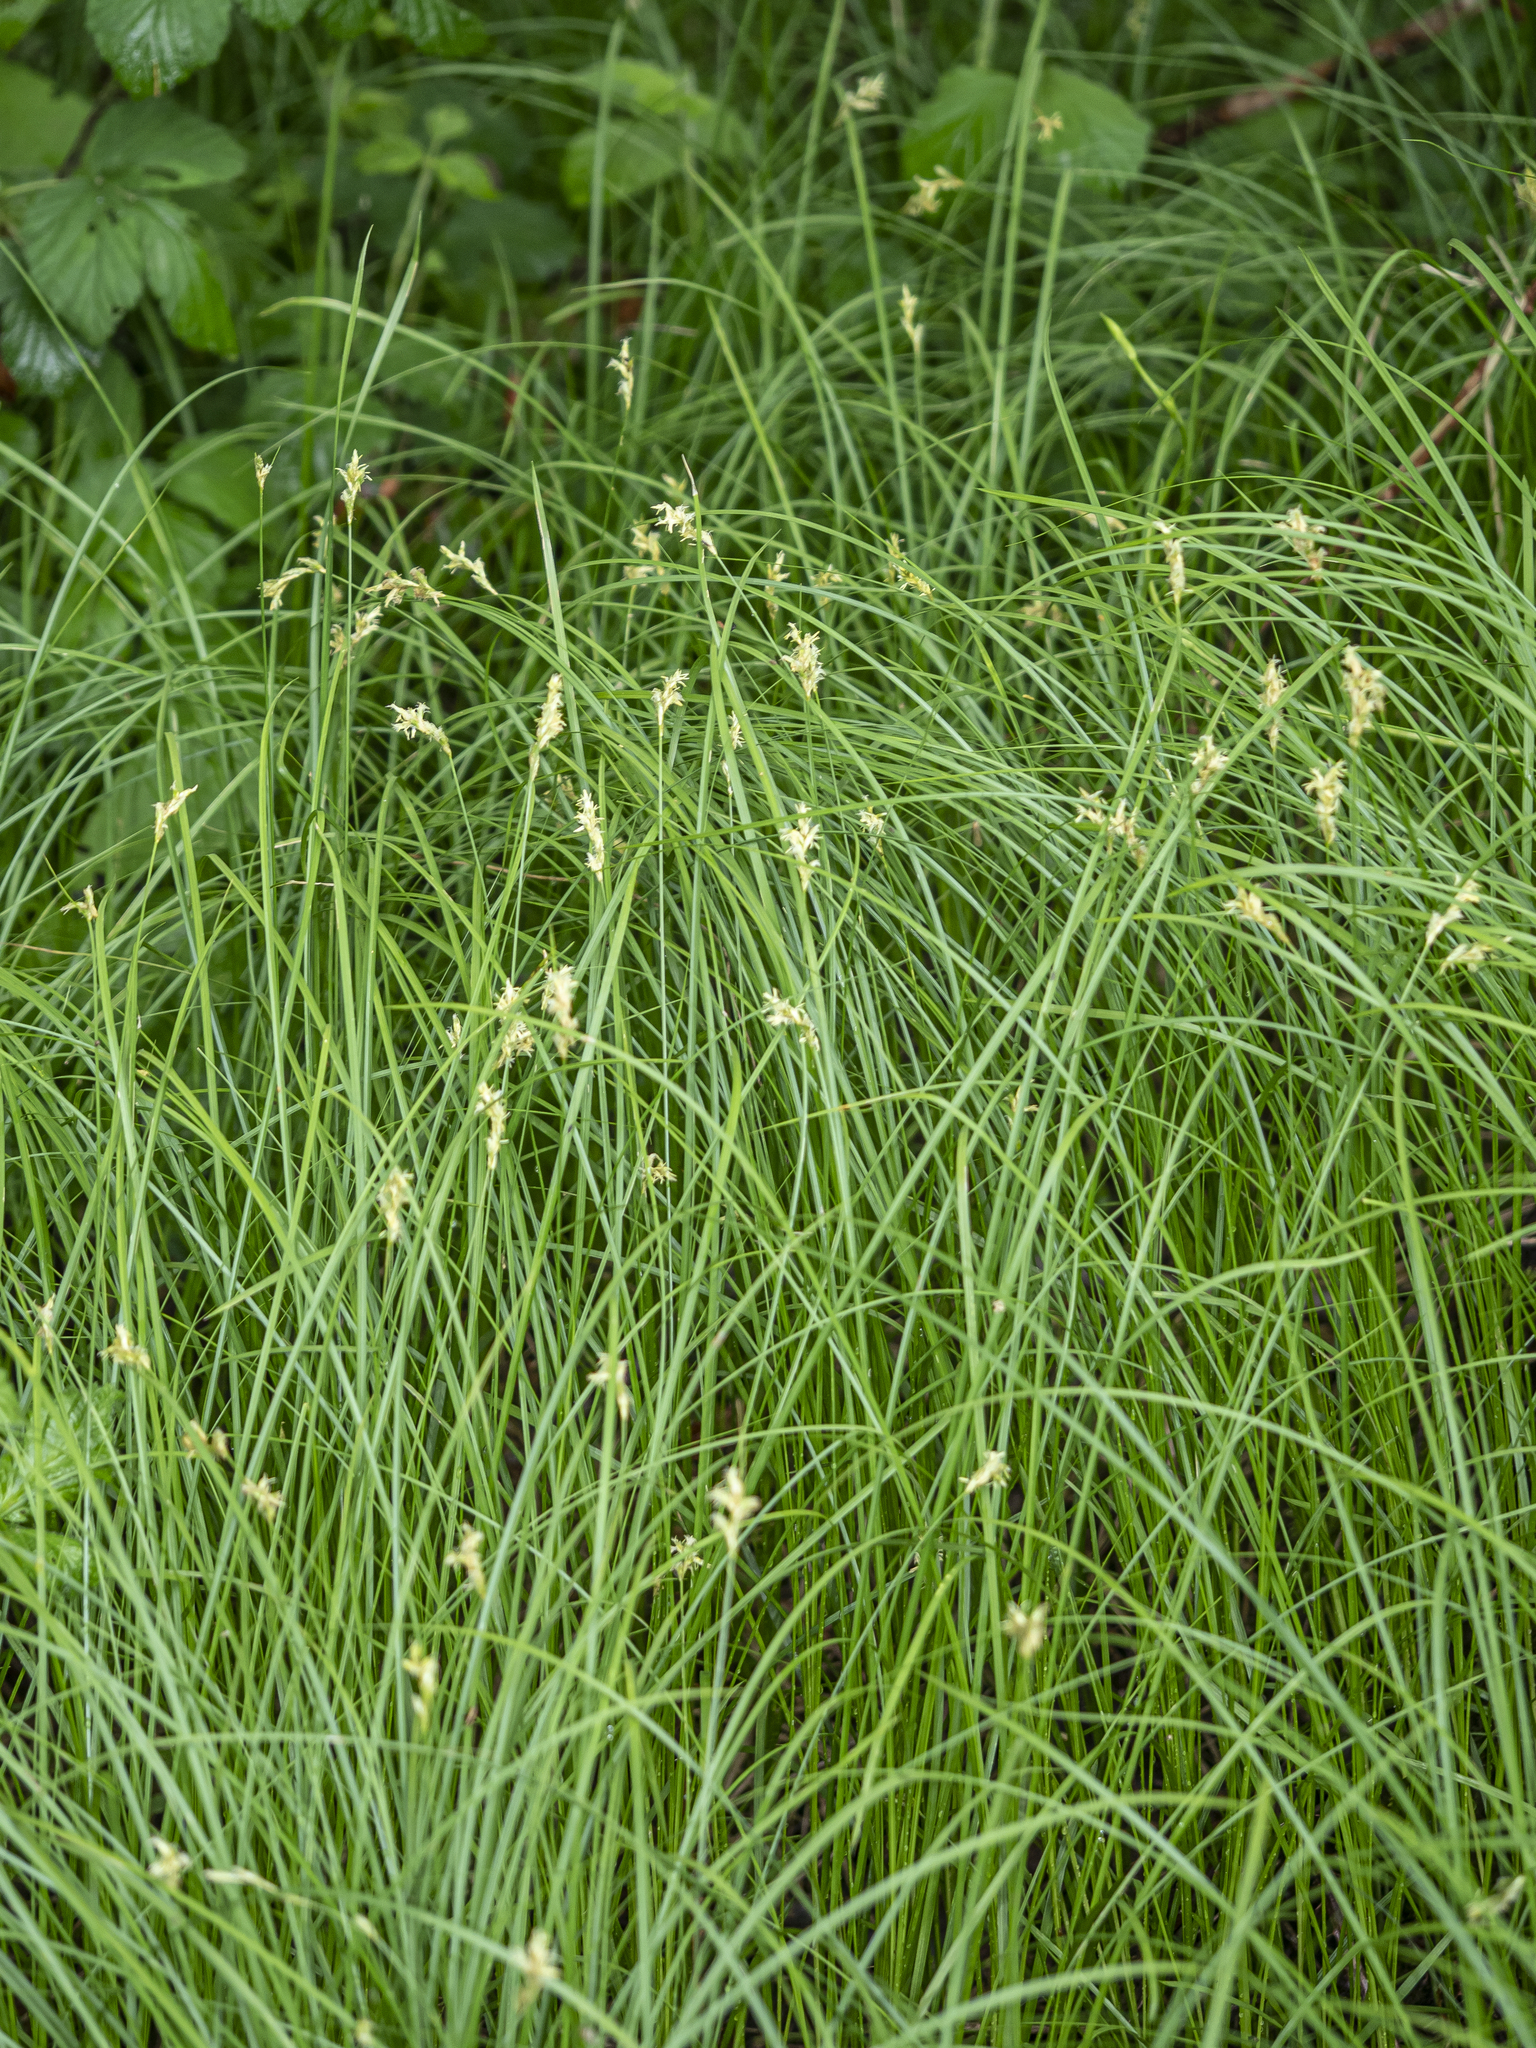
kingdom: Plantae
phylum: Tracheophyta
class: Liliopsida
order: Poales
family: Cyperaceae
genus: Carex
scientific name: Carex brizoides
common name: Quaking-grass sedge
